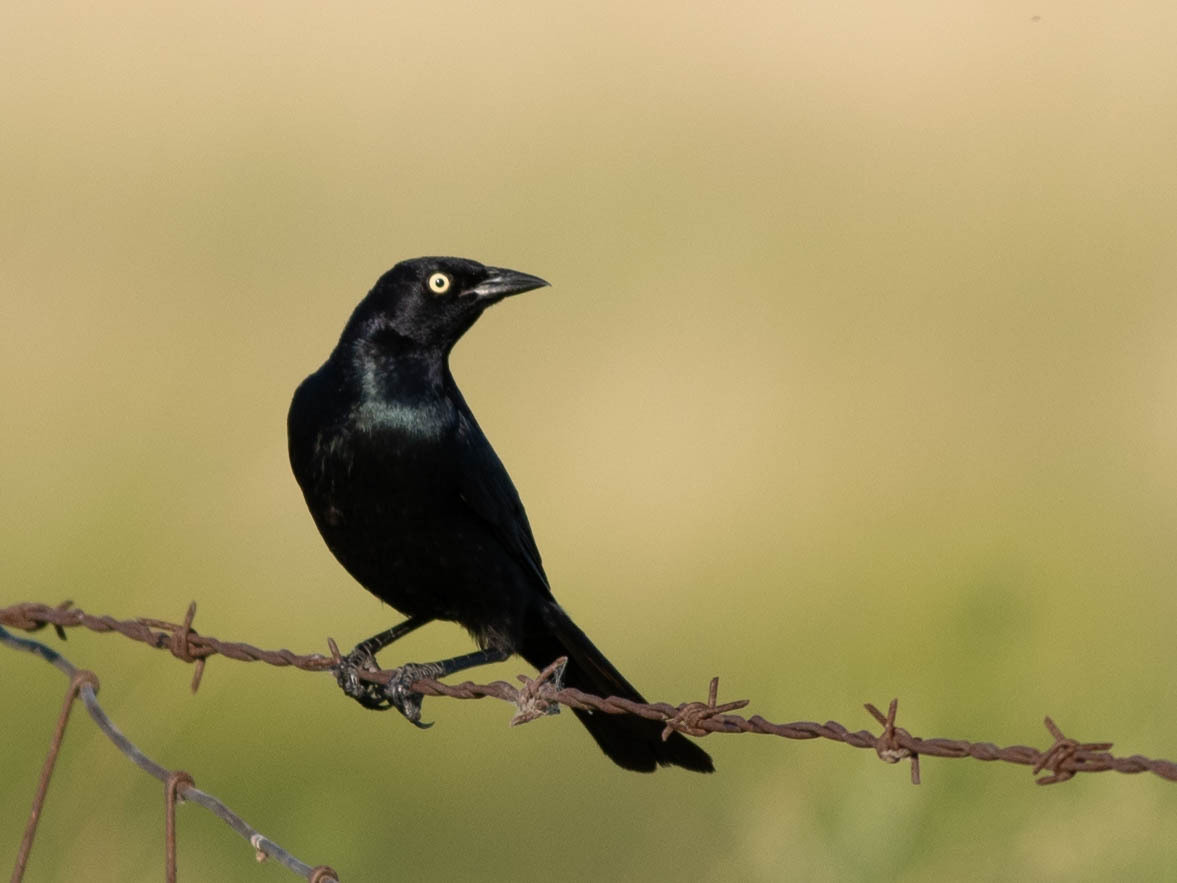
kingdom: Animalia
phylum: Chordata
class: Aves
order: Passeriformes
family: Icteridae
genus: Euphagus
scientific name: Euphagus cyanocephalus
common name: Brewer's blackbird
